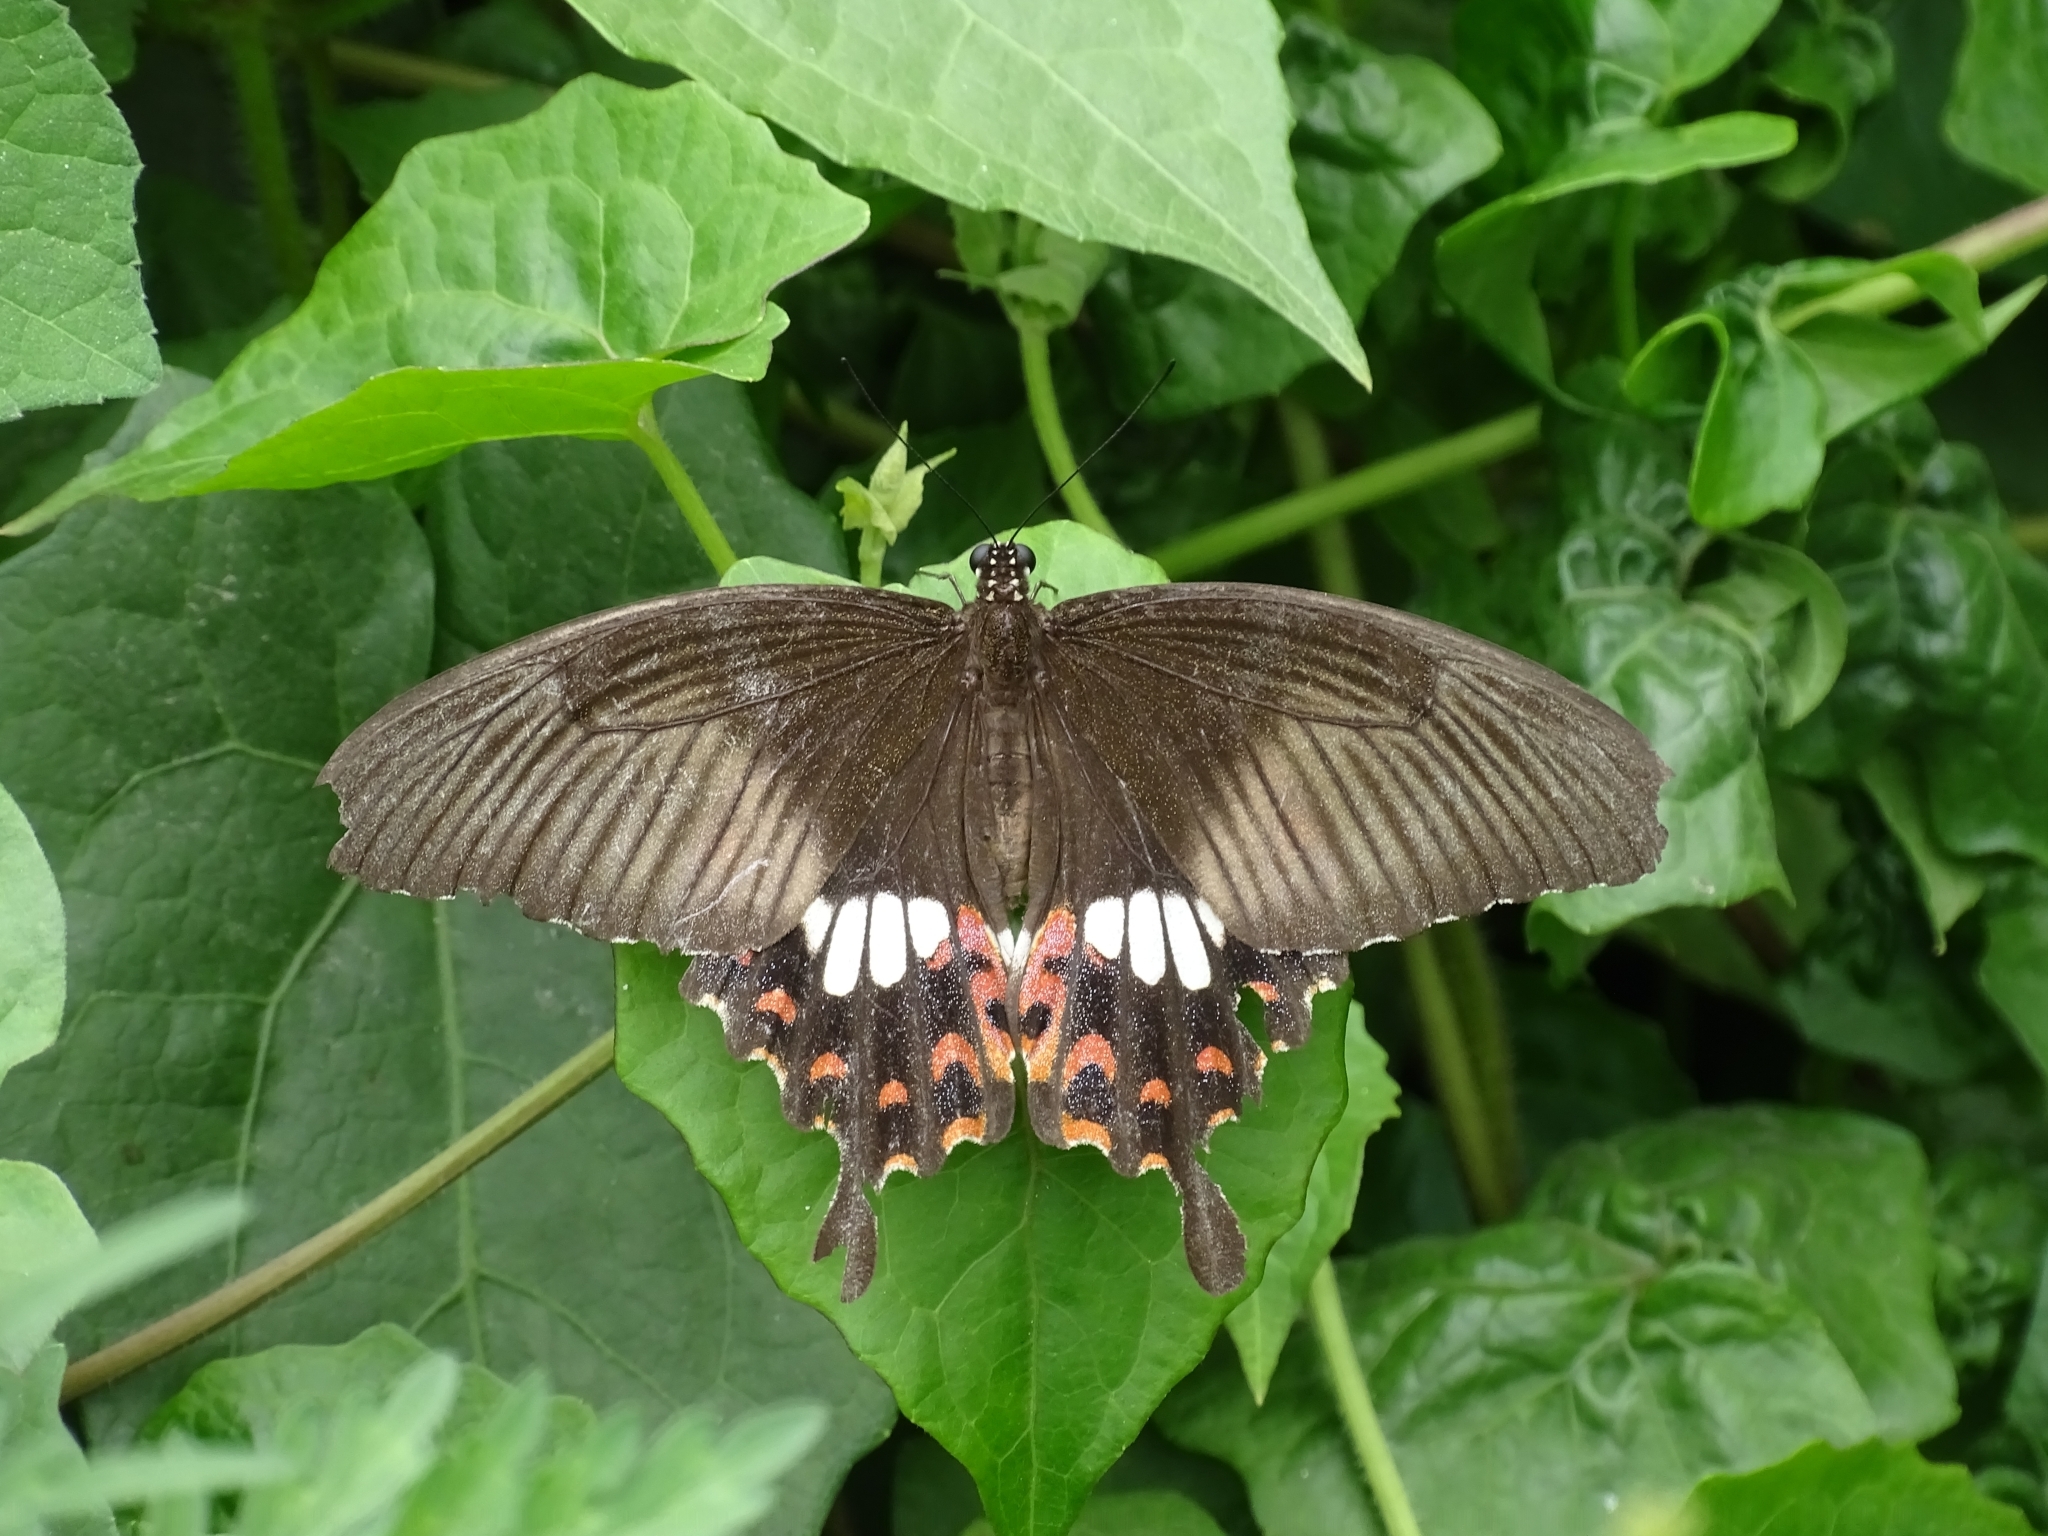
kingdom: Animalia
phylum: Arthropoda
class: Insecta
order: Lepidoptera
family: Papilionidae
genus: Papilio
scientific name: Papilio polytes
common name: Common mormon
